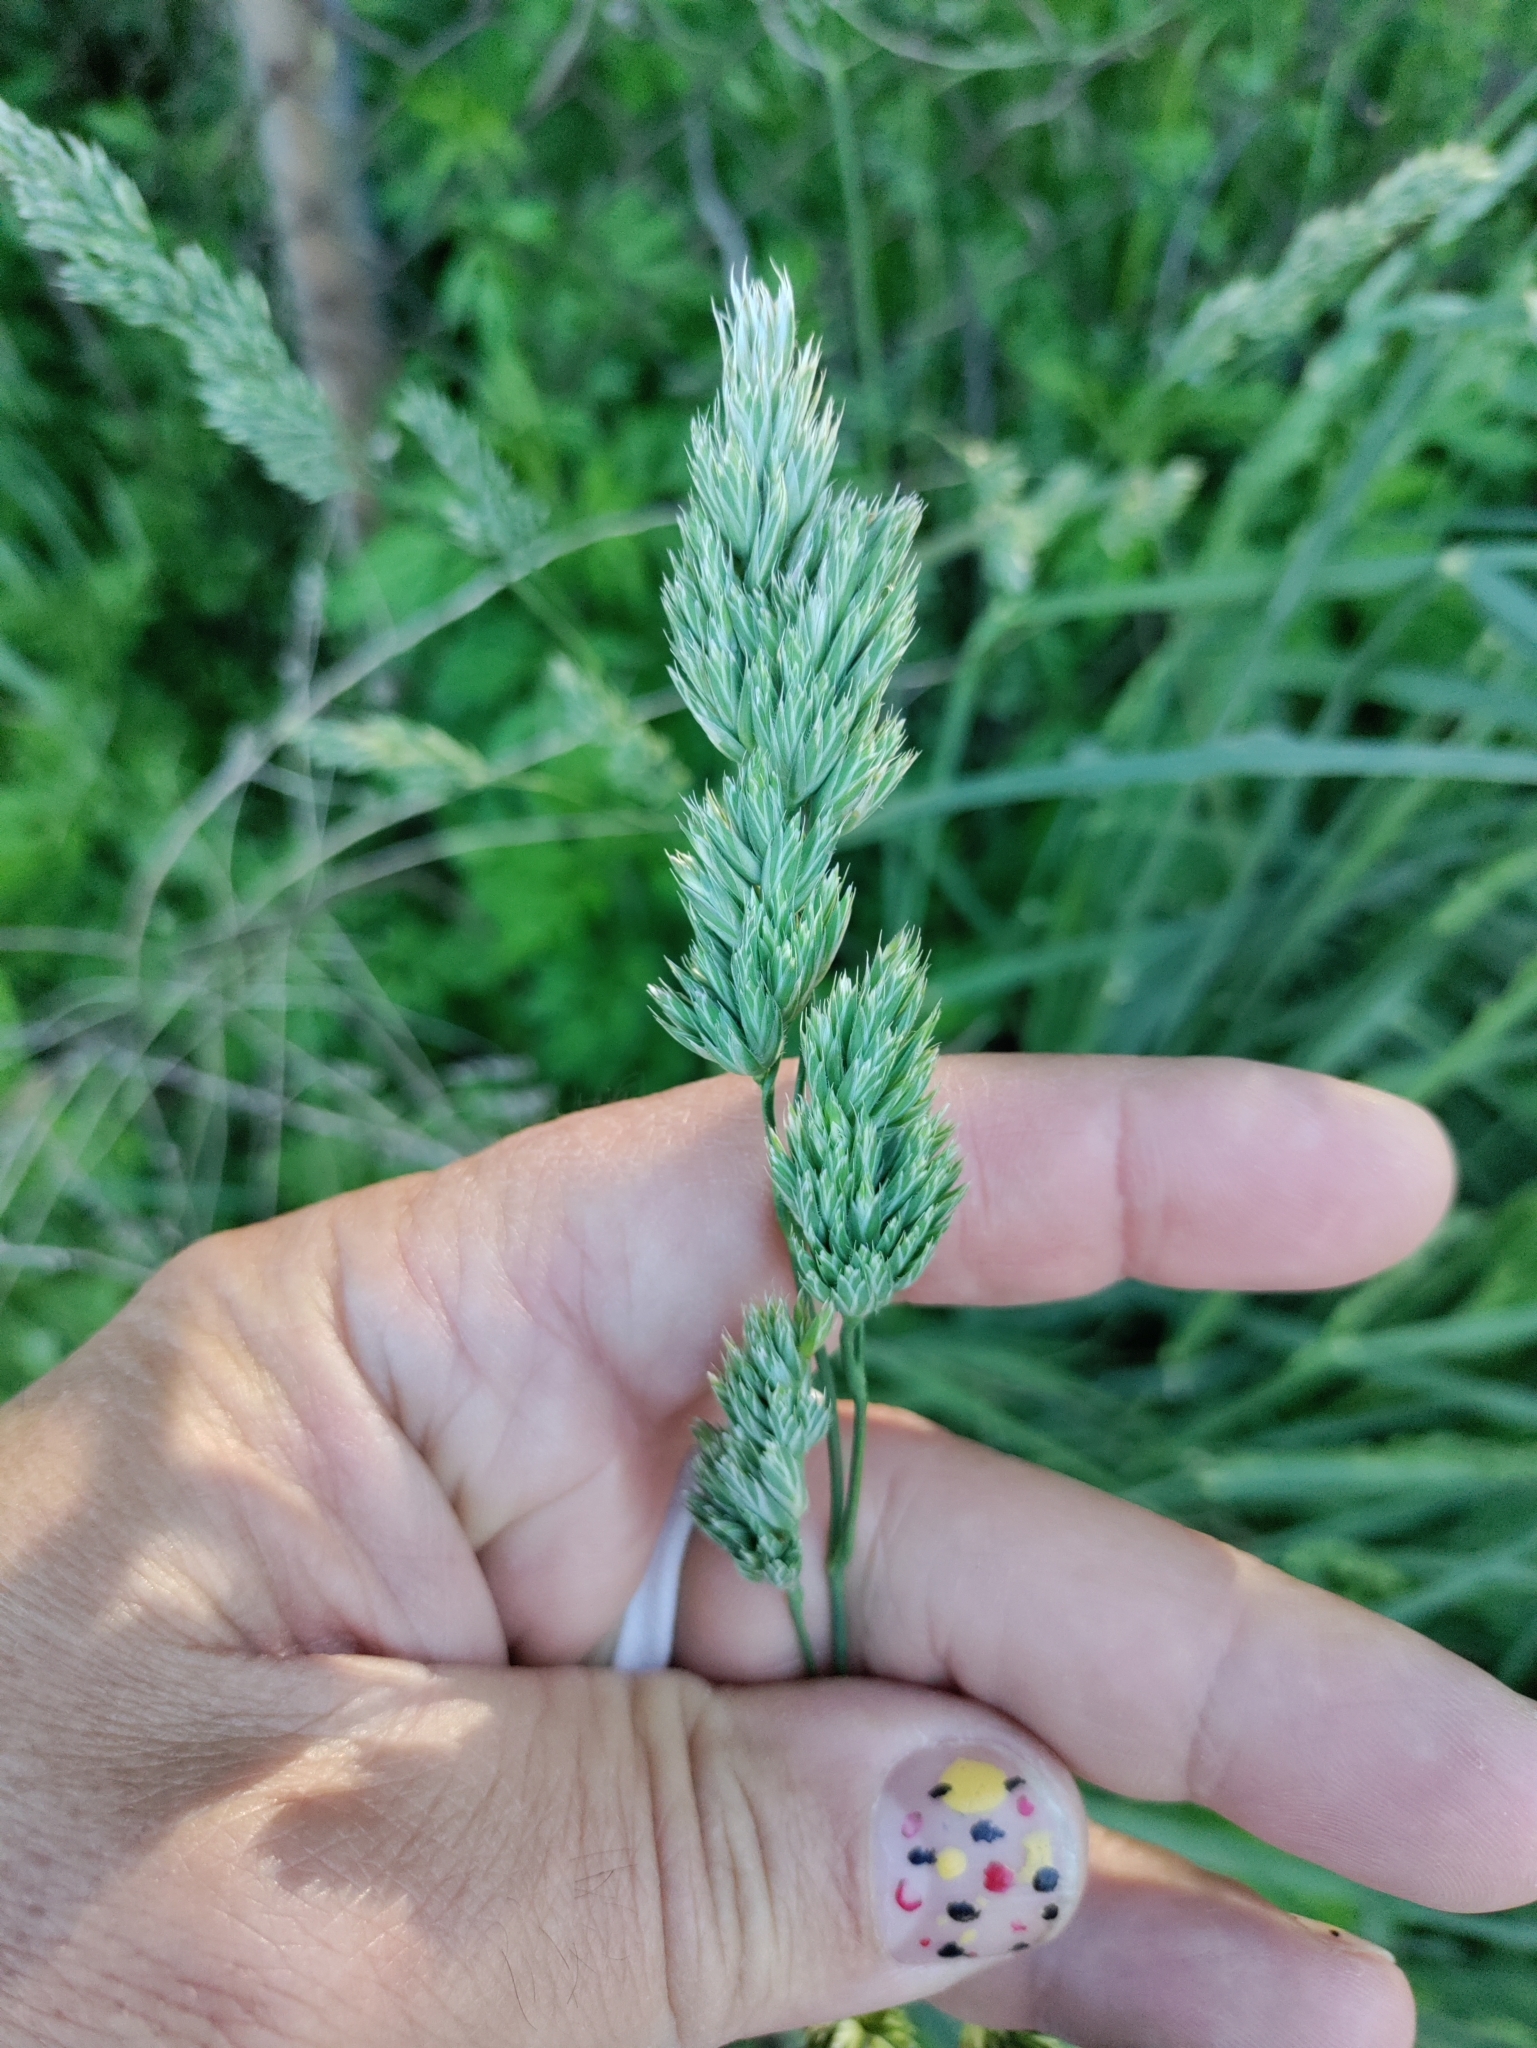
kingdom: Plantae
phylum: Tracheophyta
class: Liliopsida
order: Poales
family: Poaceae
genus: Dactylis
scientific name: Dactylis glomerata
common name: Orchardgrass
